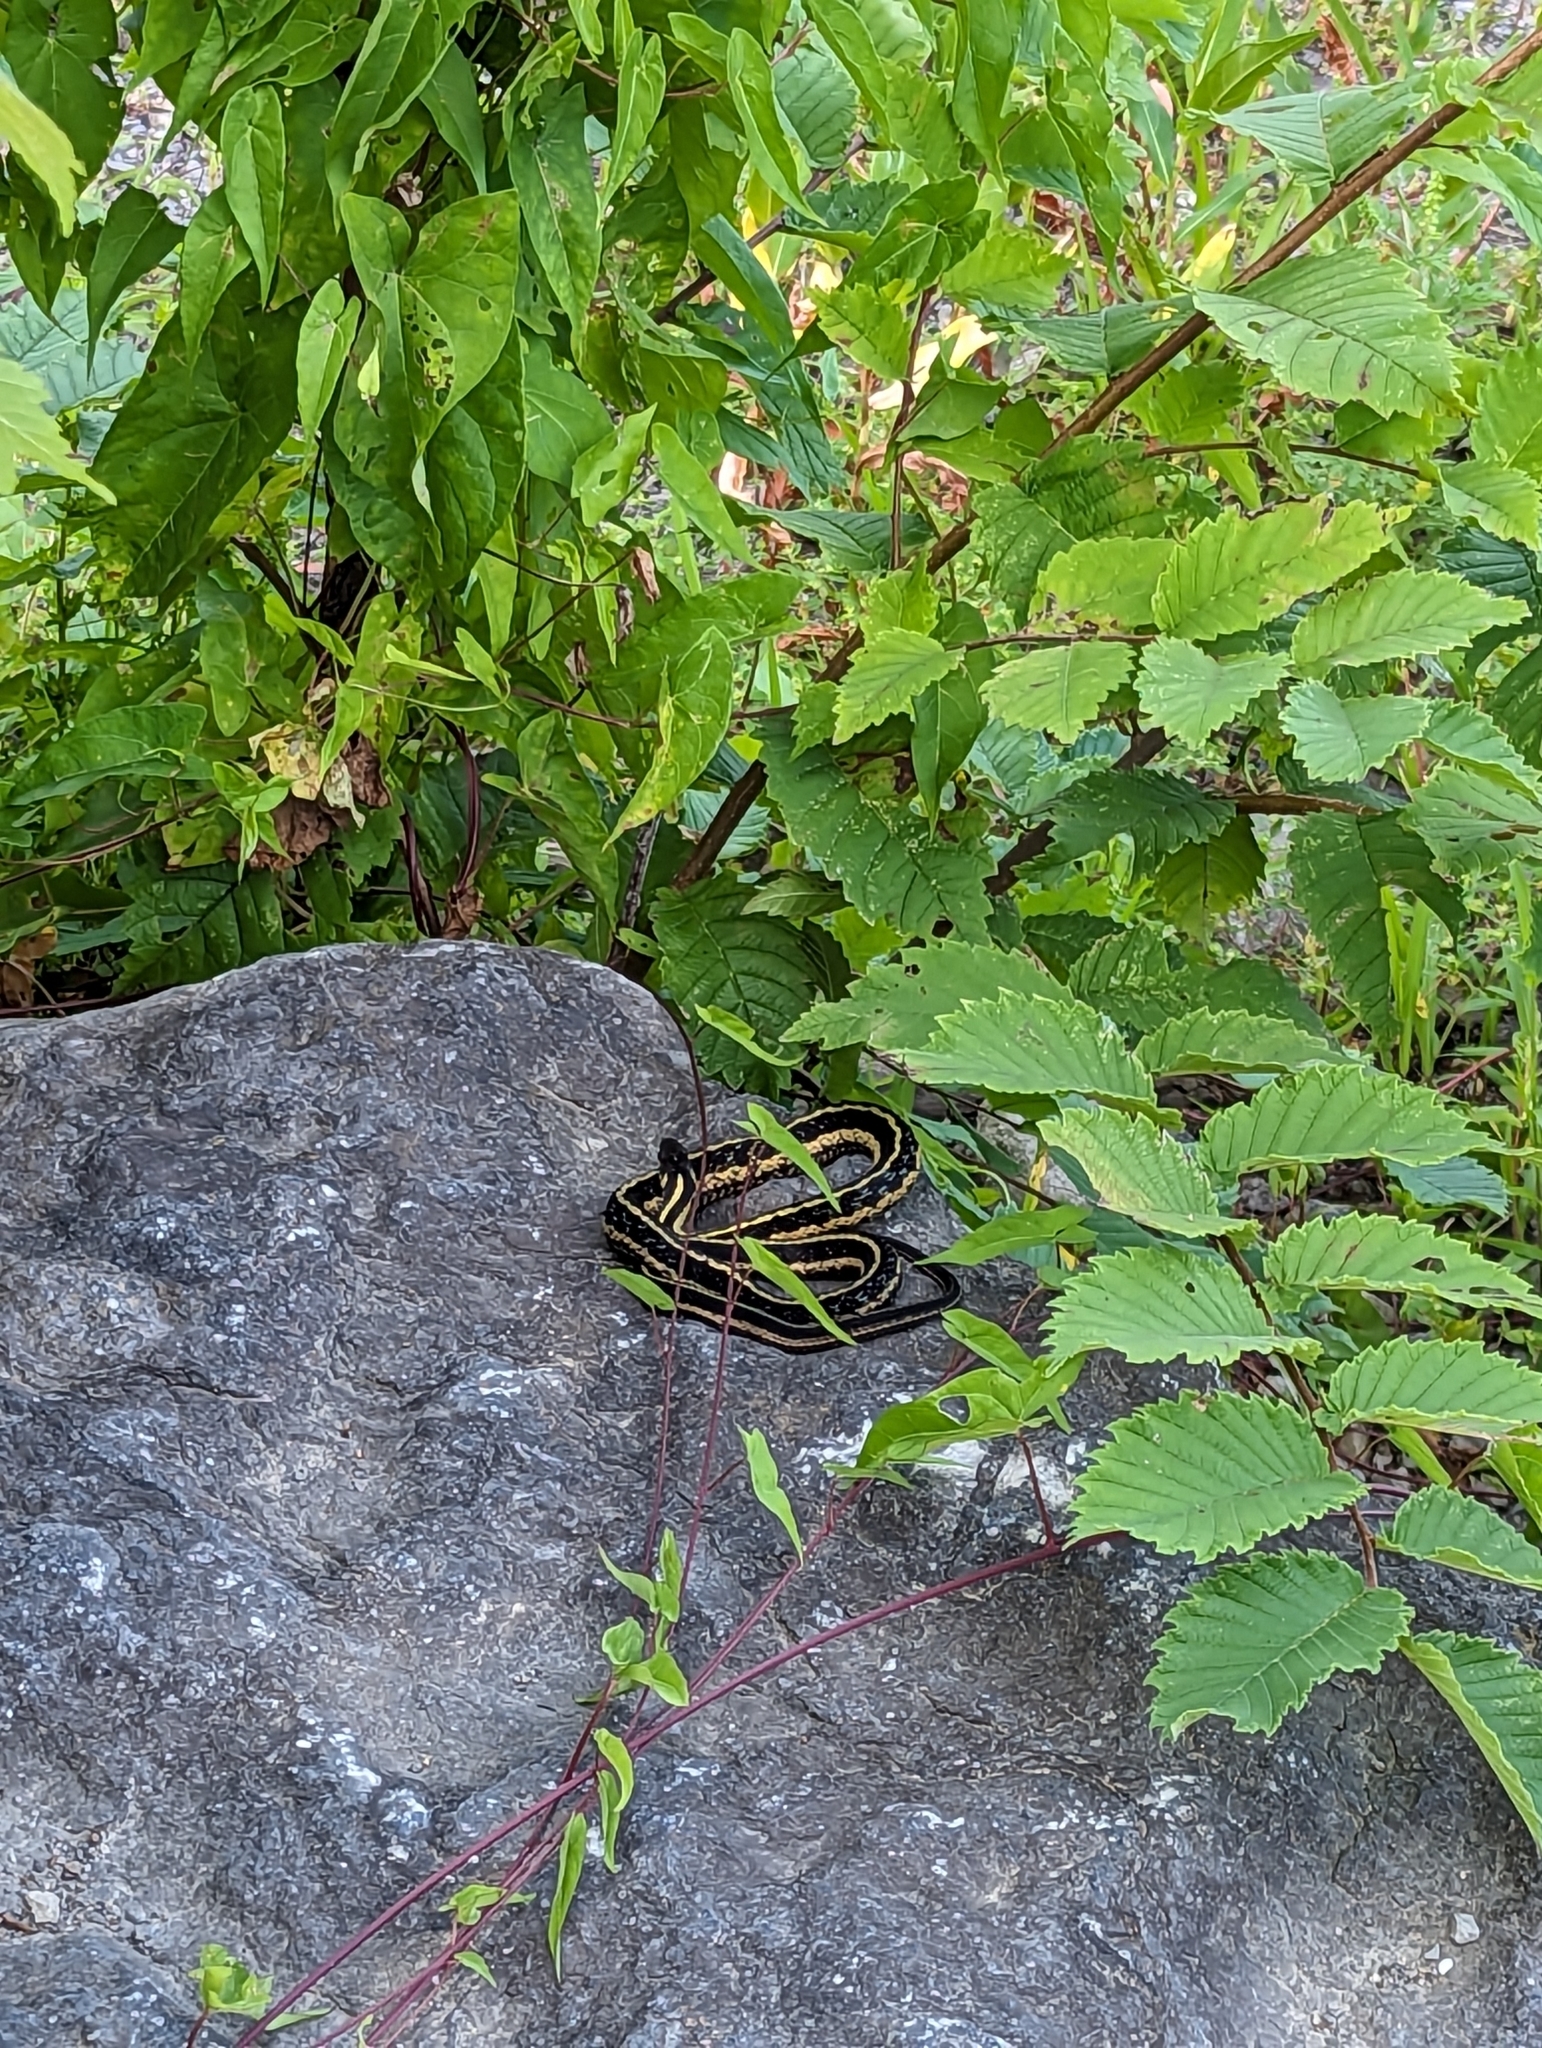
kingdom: Animalia
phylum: Chordata
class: Squamata
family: Colubridae
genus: Thamnophis
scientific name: Thamnophis sirtalis
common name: Common garter snake
